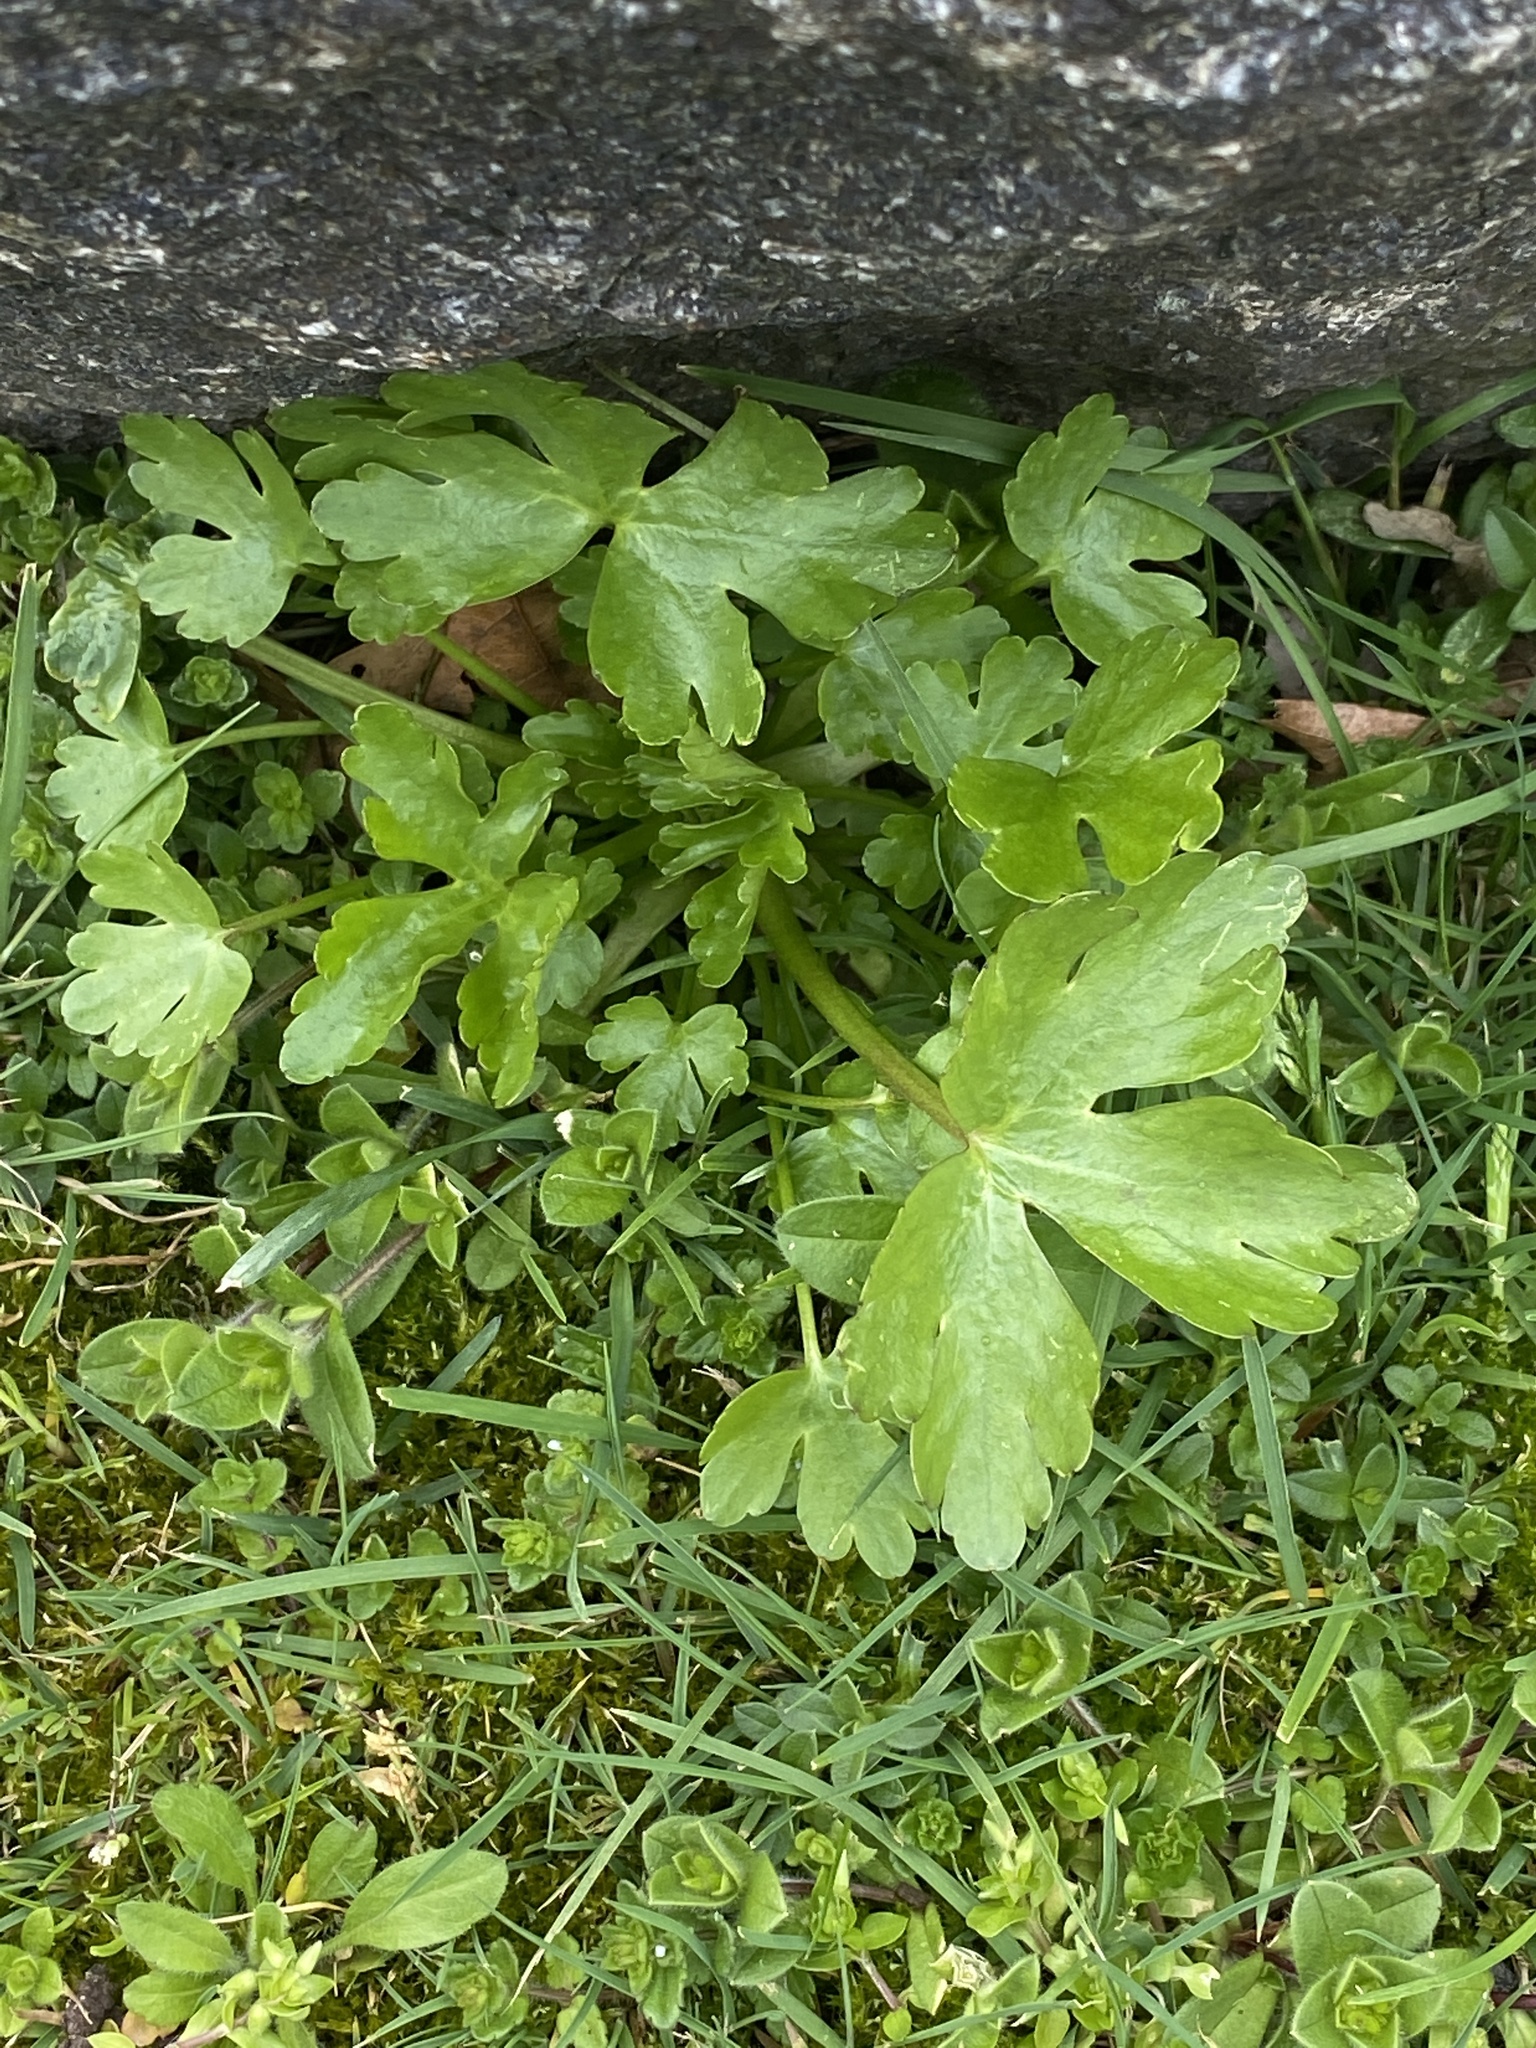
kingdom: Plantae
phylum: Tracheophyta
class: Magnoliopsida
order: Ranunculales
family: Ranunculaceae
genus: Ranunculus
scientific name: Ranunculus sceleratus
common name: Celery-leaved buttercup
